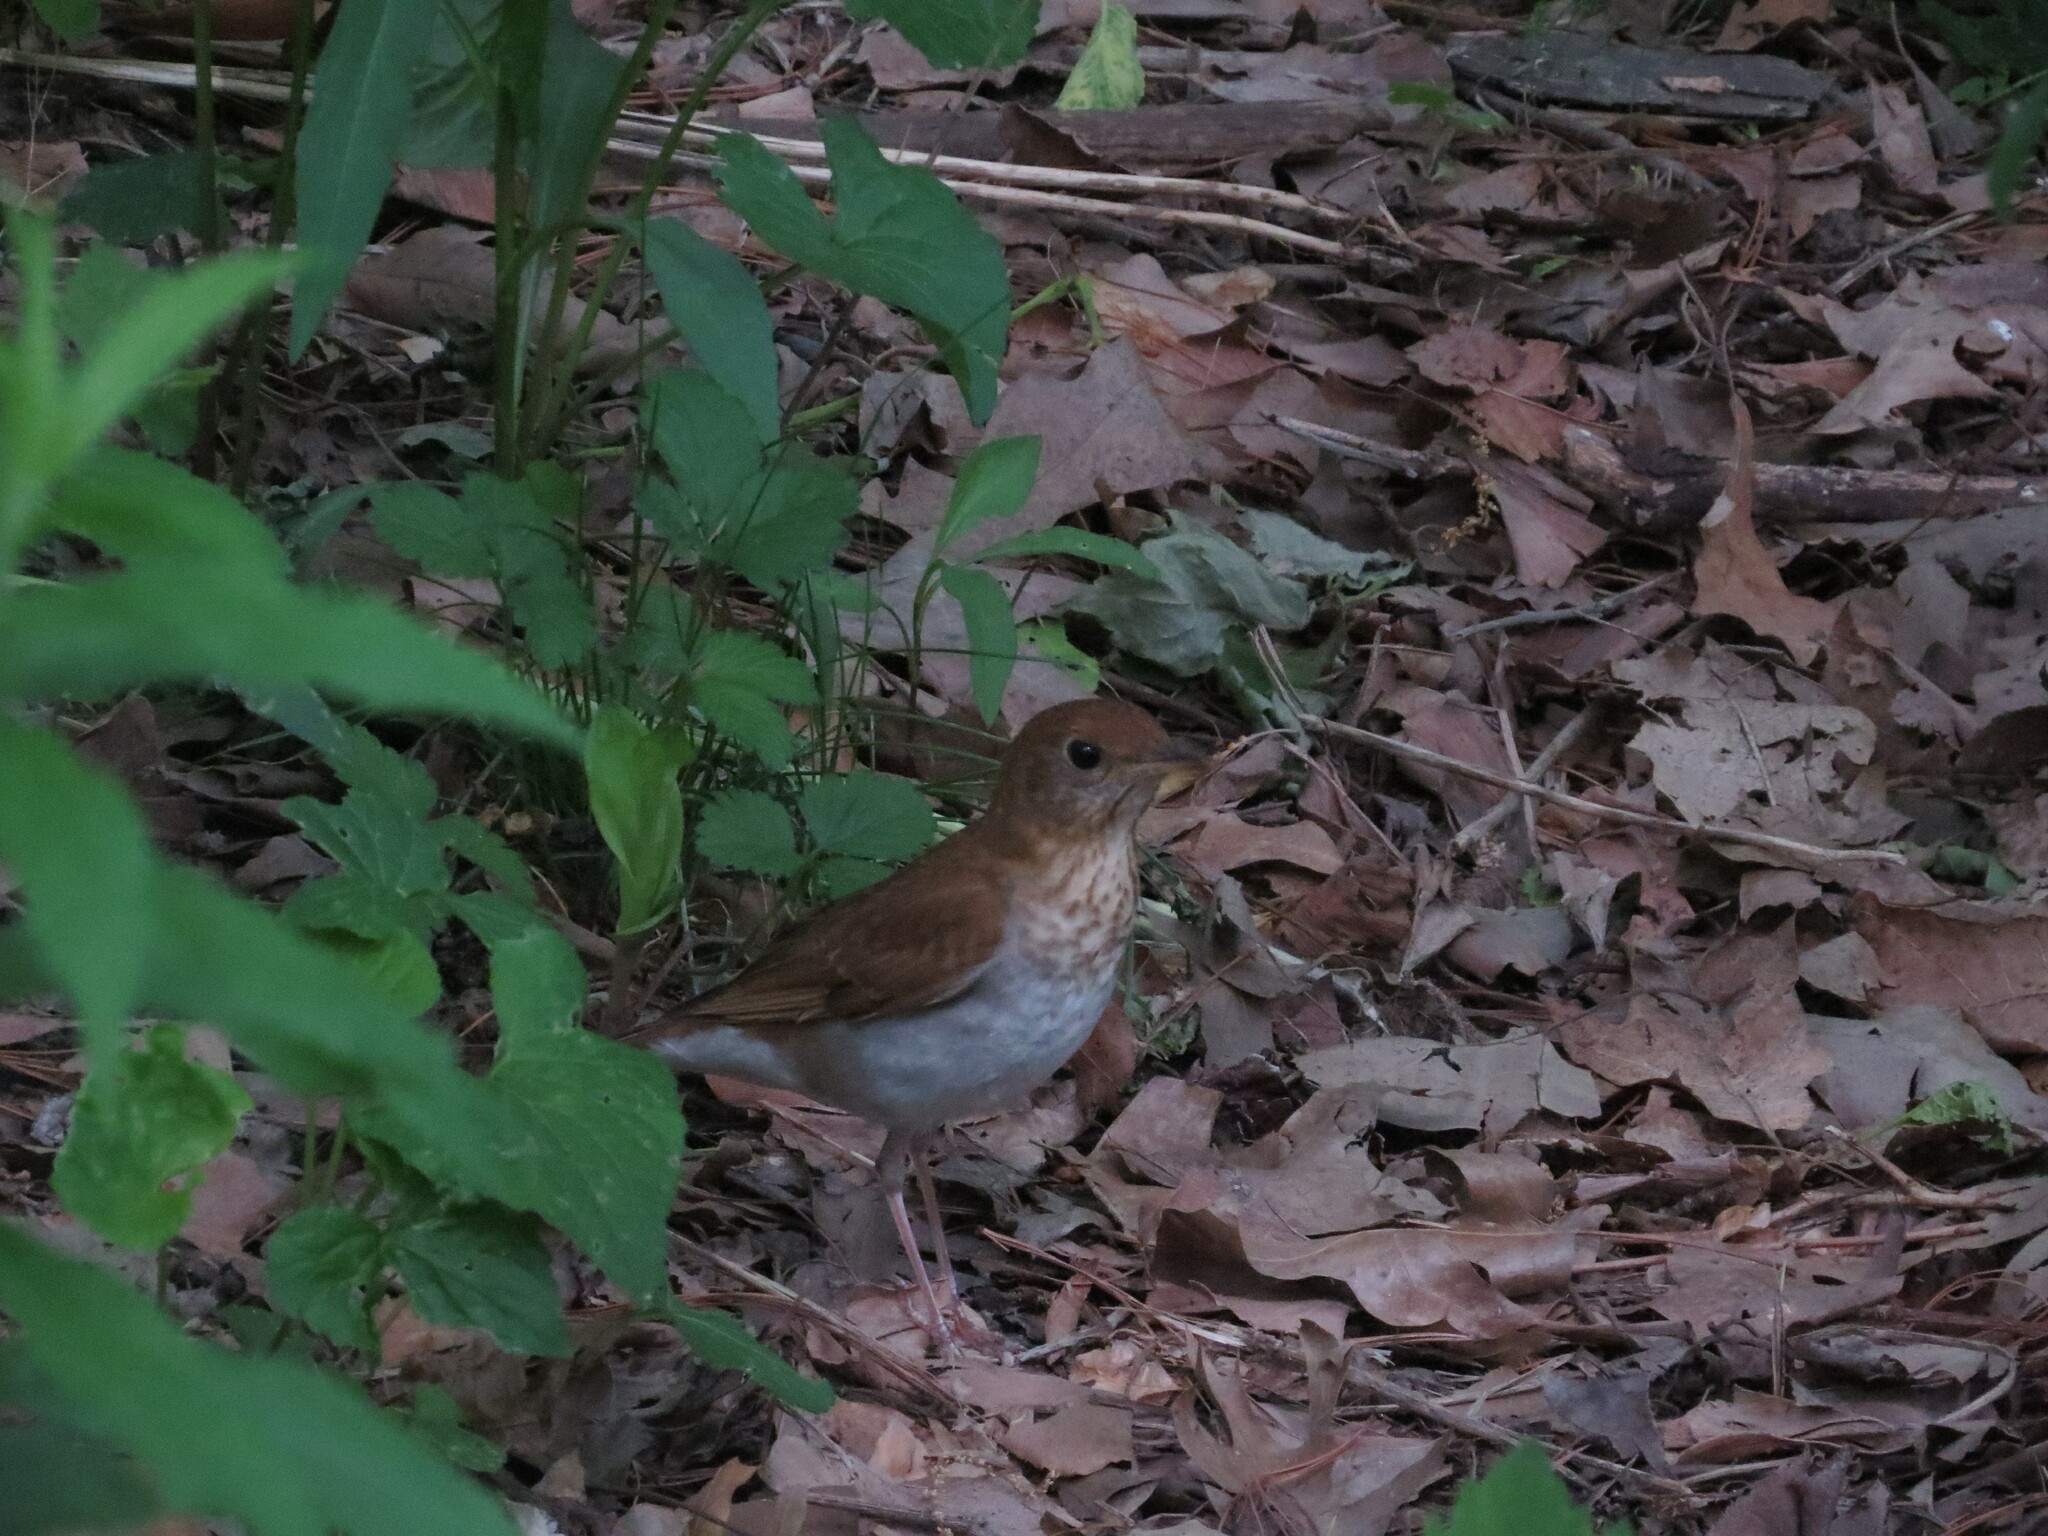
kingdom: Animalia
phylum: Chordata
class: Aves
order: Passeriformes
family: Turdidae
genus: Catharus
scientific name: Catharus fuscescens
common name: Veery
